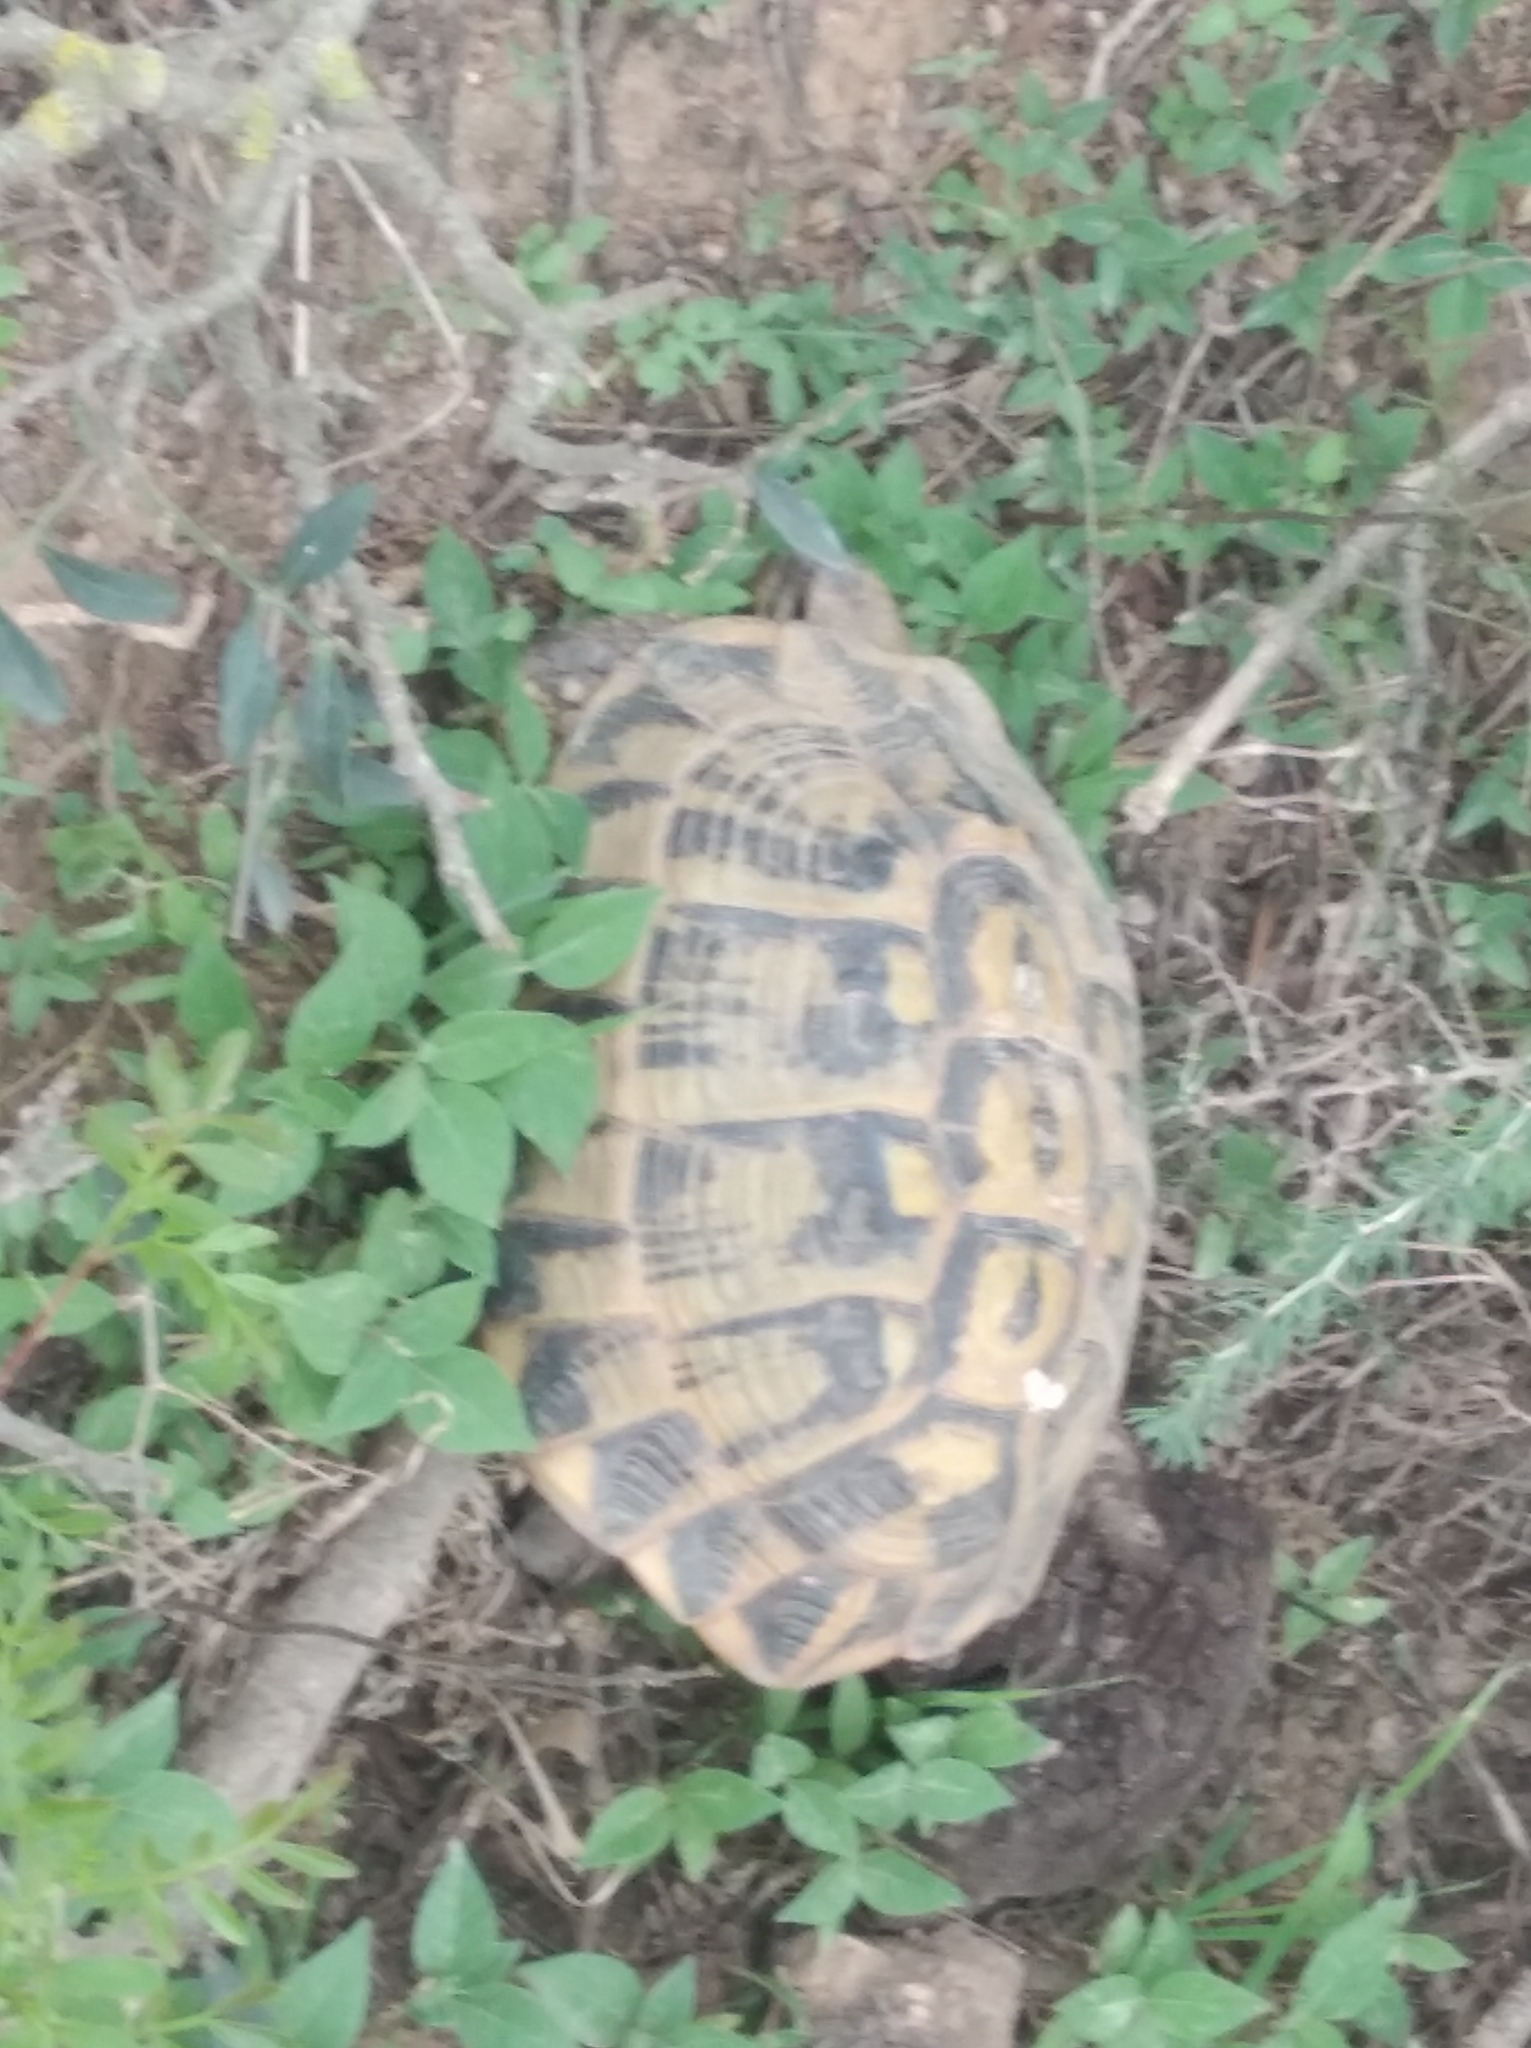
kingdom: Animalia
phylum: Chordata
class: Testudines
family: Testudinidae
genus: Testudo
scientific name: Testudo hermanni
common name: Hermann's tortoise
